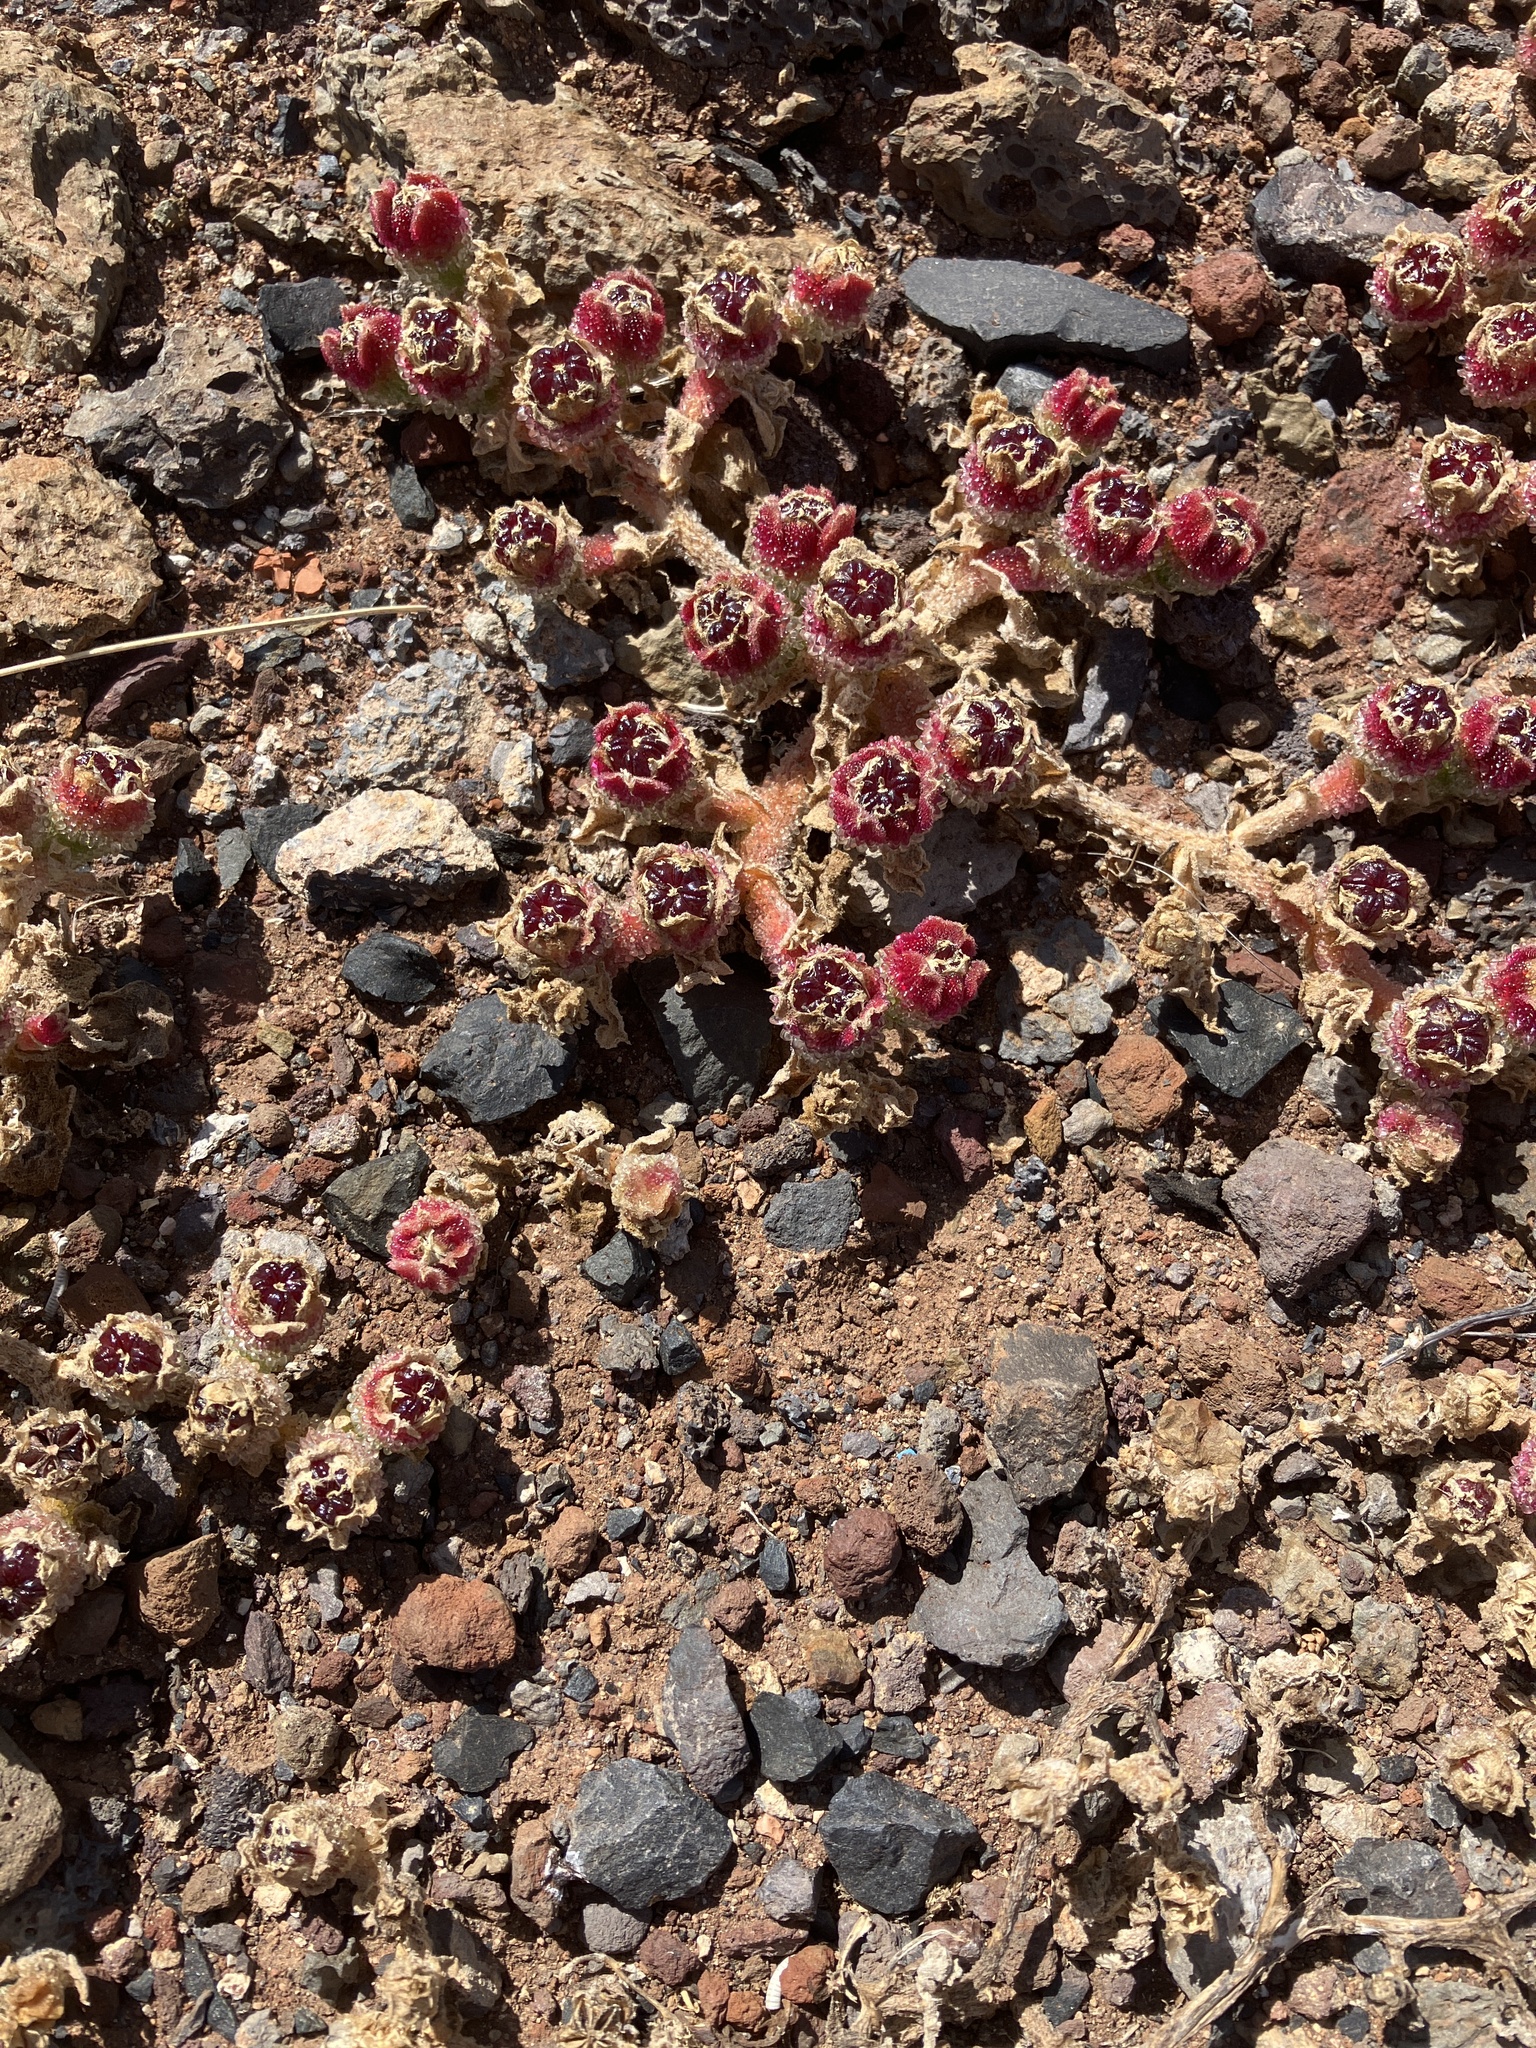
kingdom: Plantae
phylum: Tracheophyta
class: Magnoliopsida
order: Caryophyllales
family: Aizoaceae
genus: Mesembryanthemum
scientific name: Mesembryanthemum crystallinum
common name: Common iceplant
